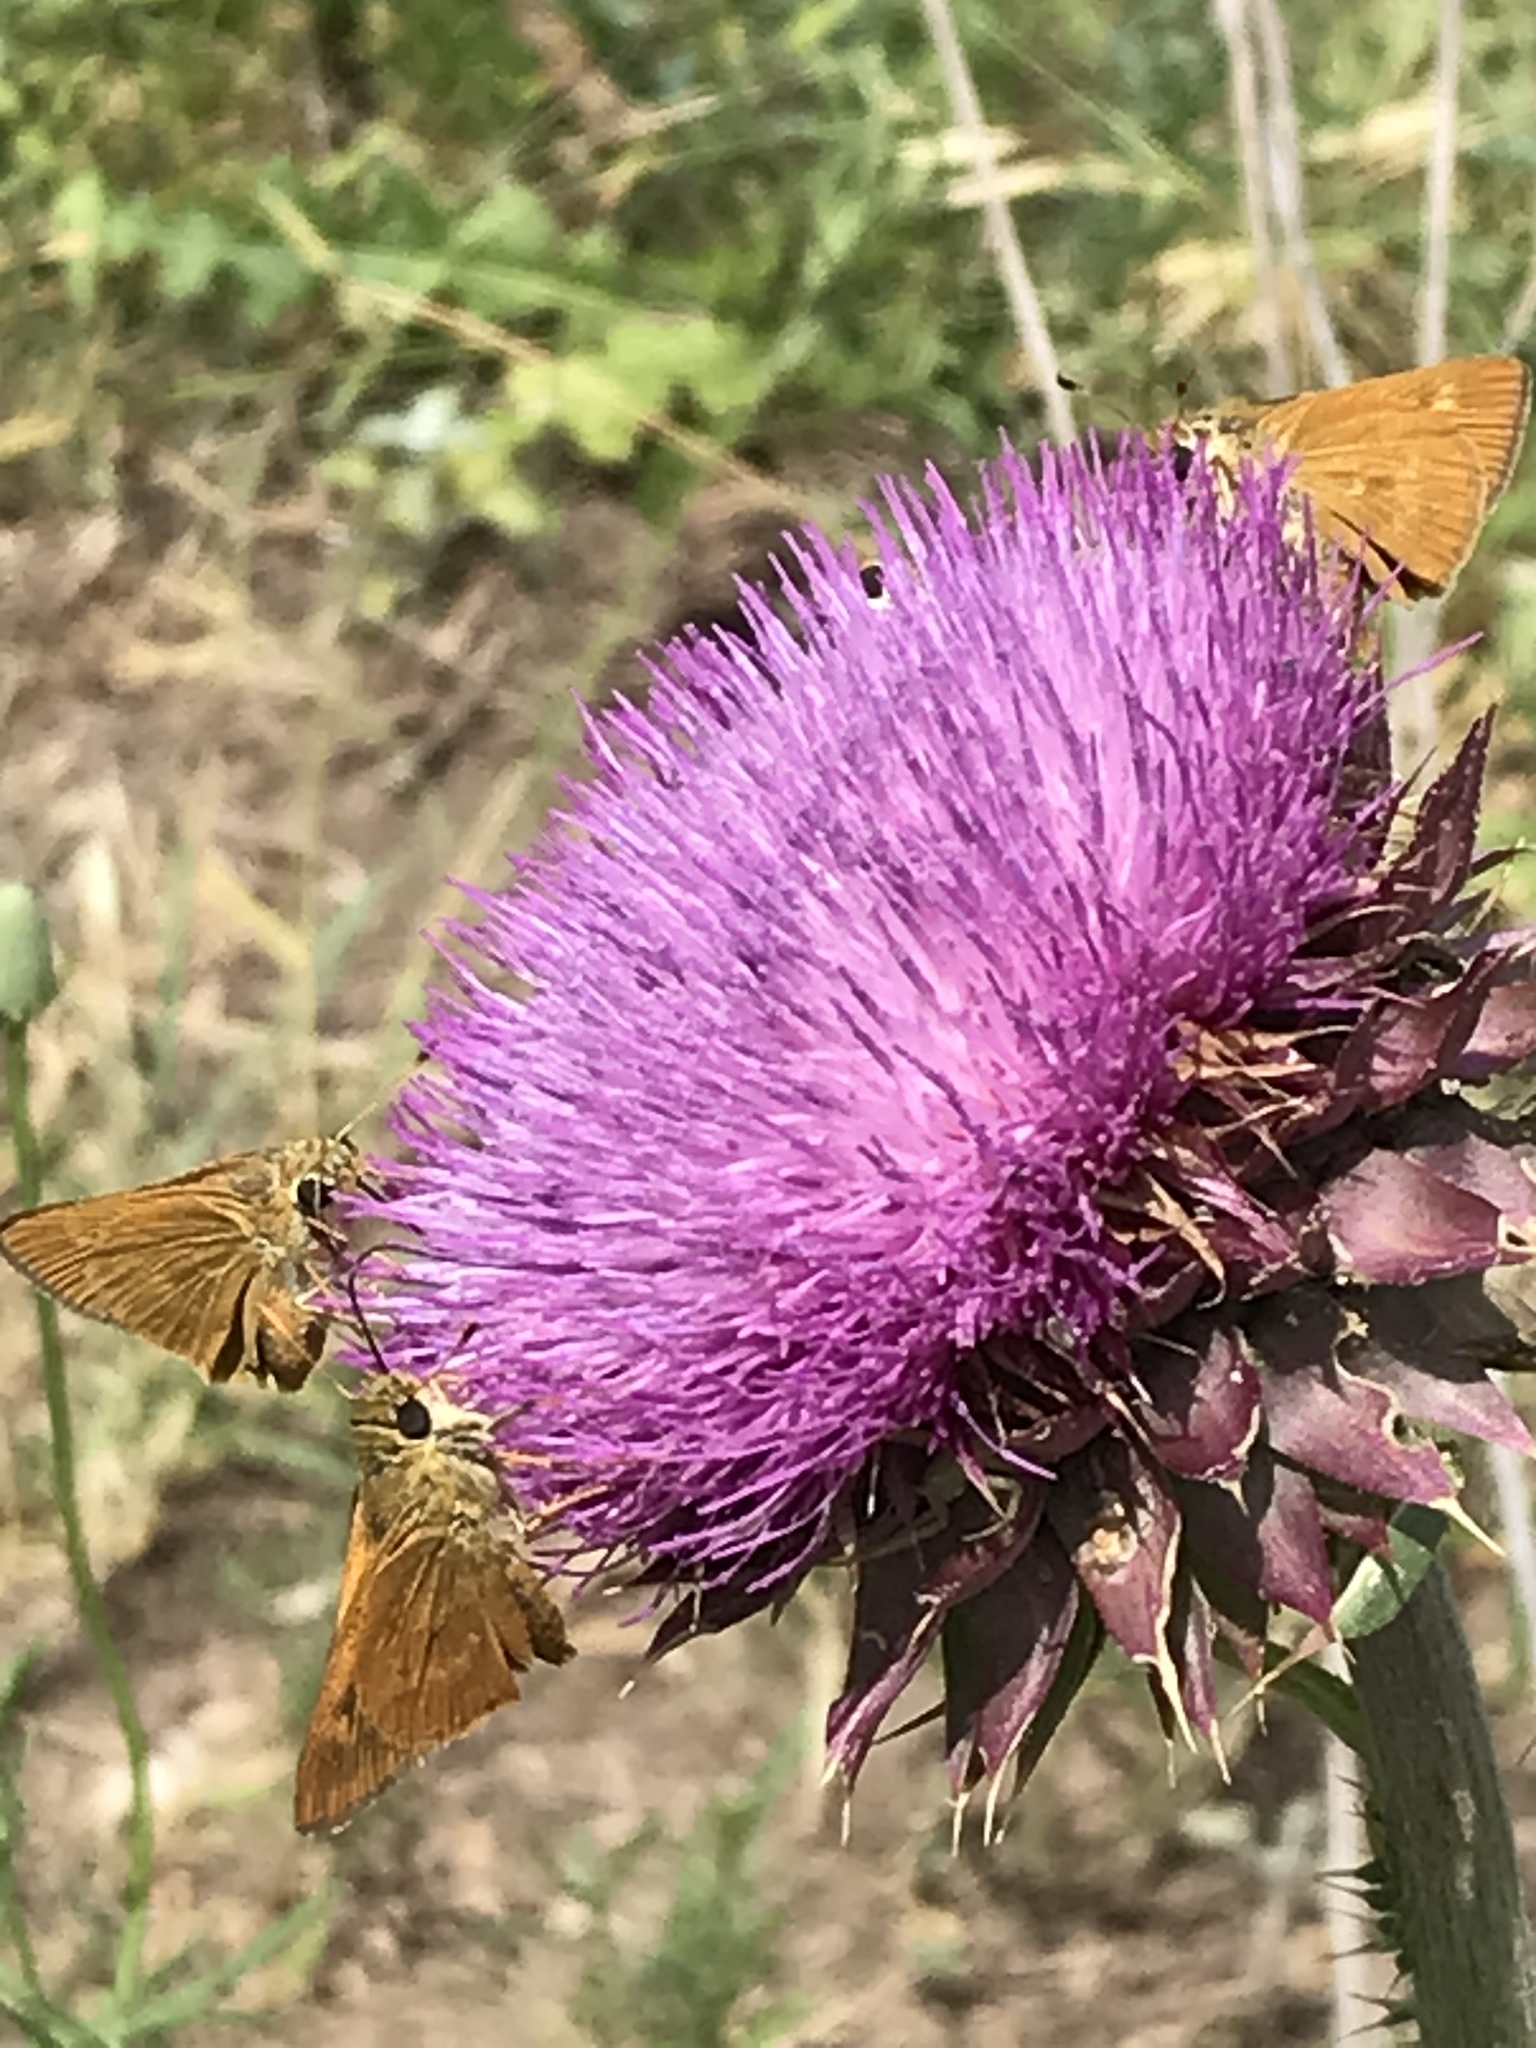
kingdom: Animalia
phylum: Arthropoda
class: Insecta
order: Lepidoptera
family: Hesperiidae
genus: Polites
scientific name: Polites otho
